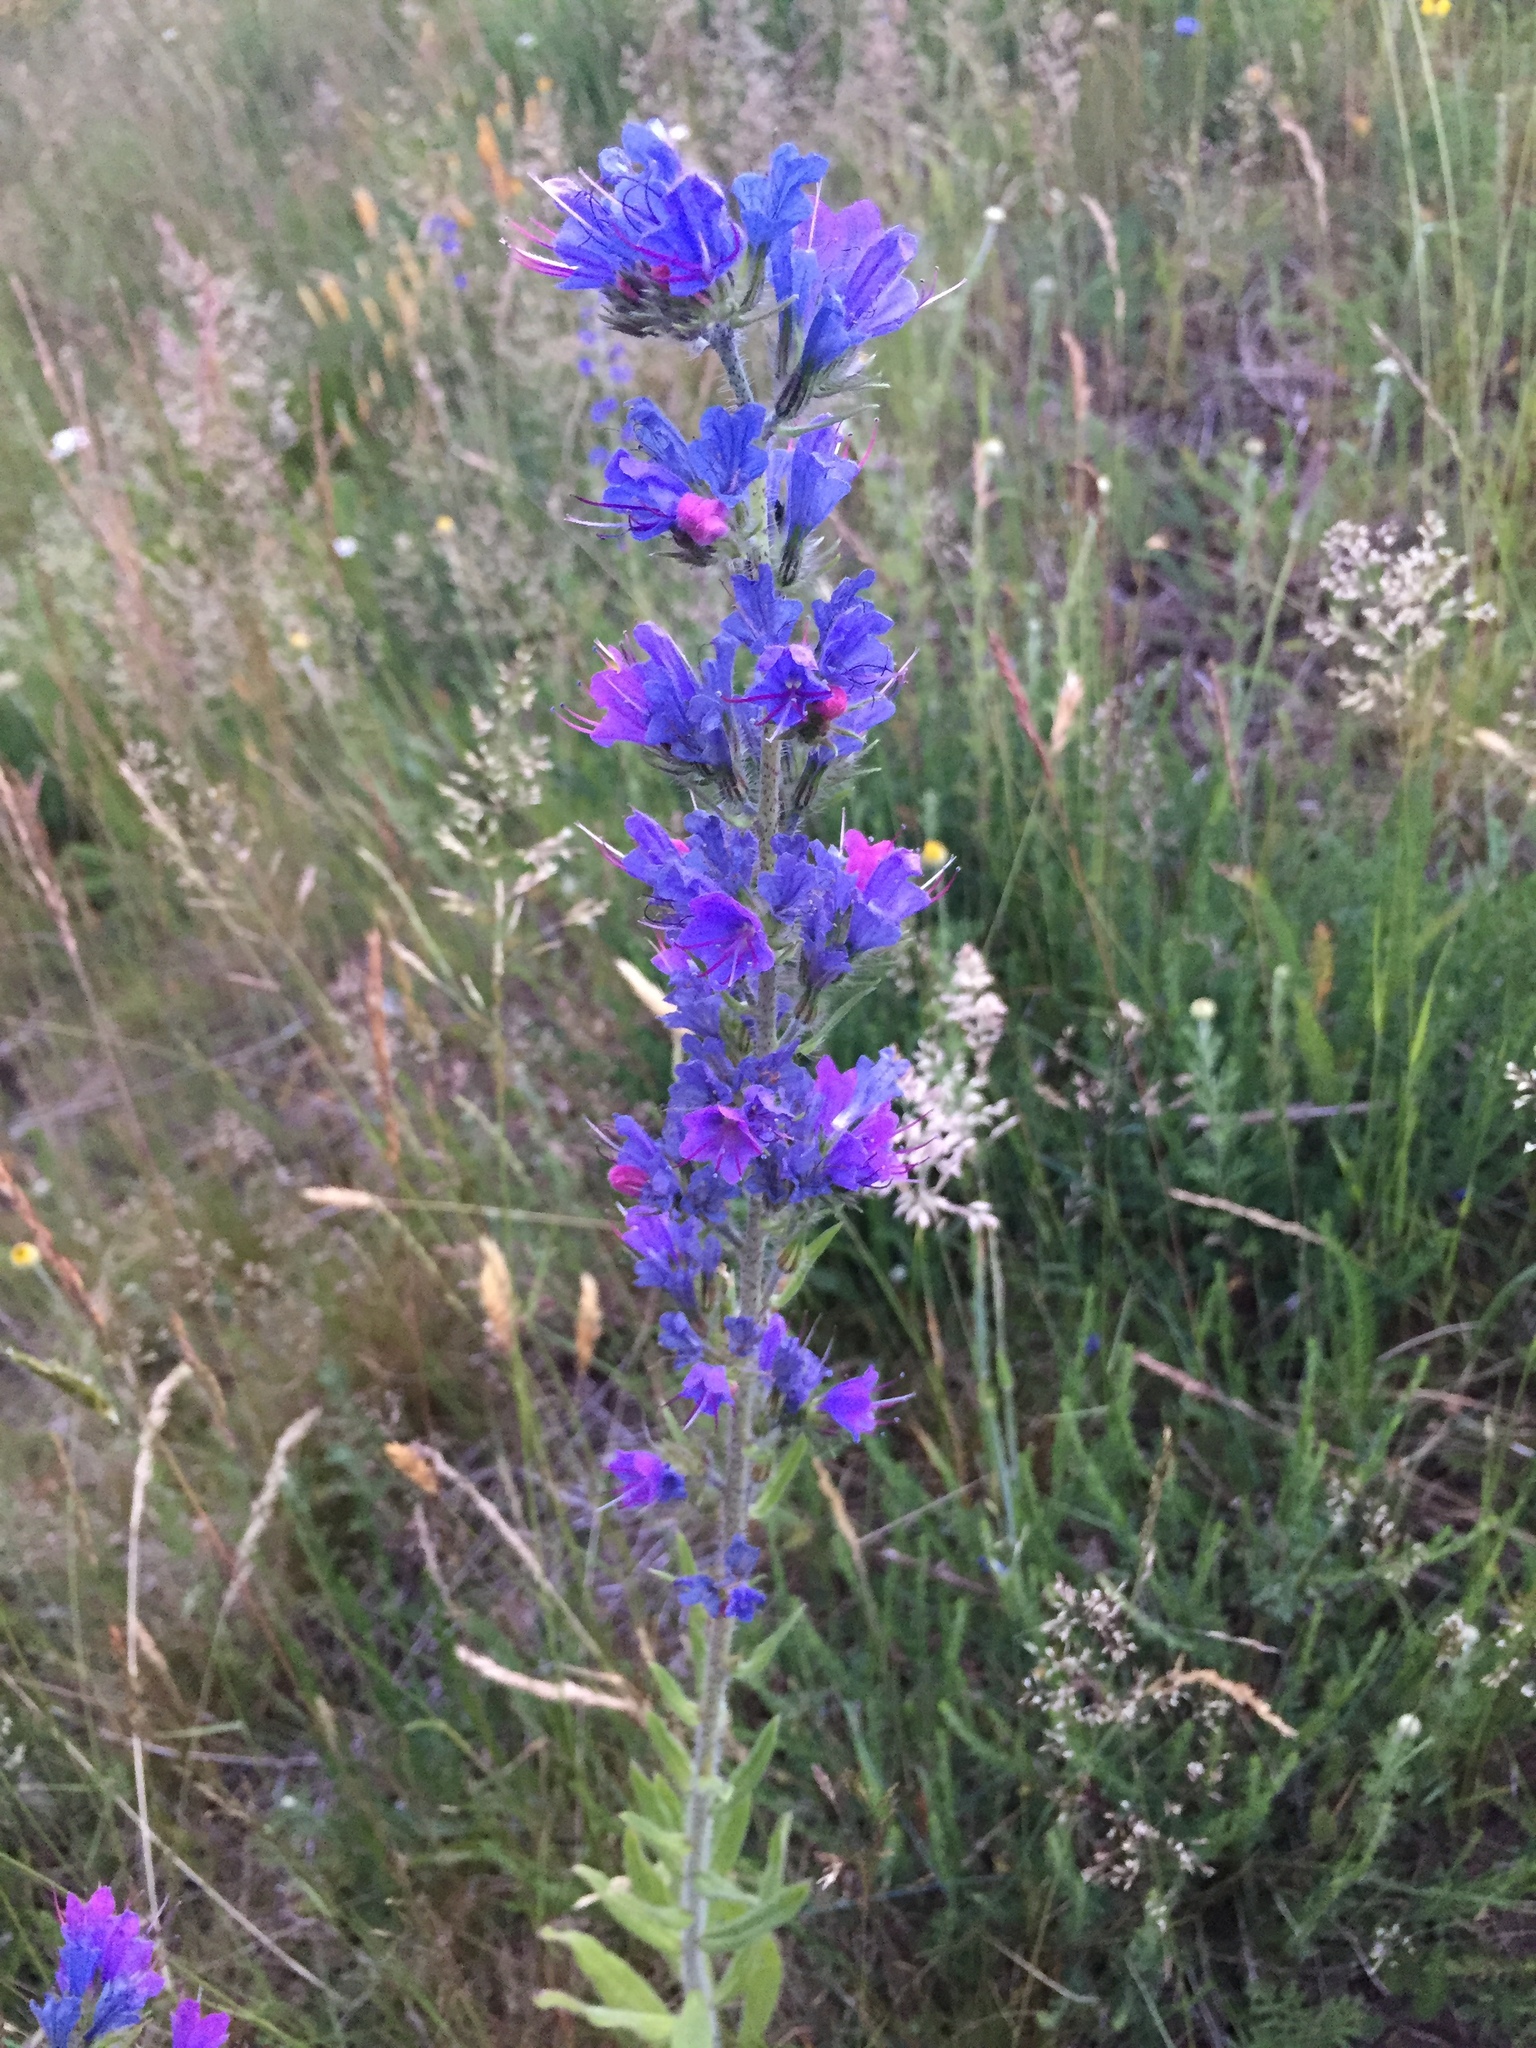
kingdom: Plantae
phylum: Tracheophyta
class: Magnoliopsida
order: Boraginales
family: Boraginaceae
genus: Echium
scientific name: Echium vulgare
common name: Common viper's bugloss
